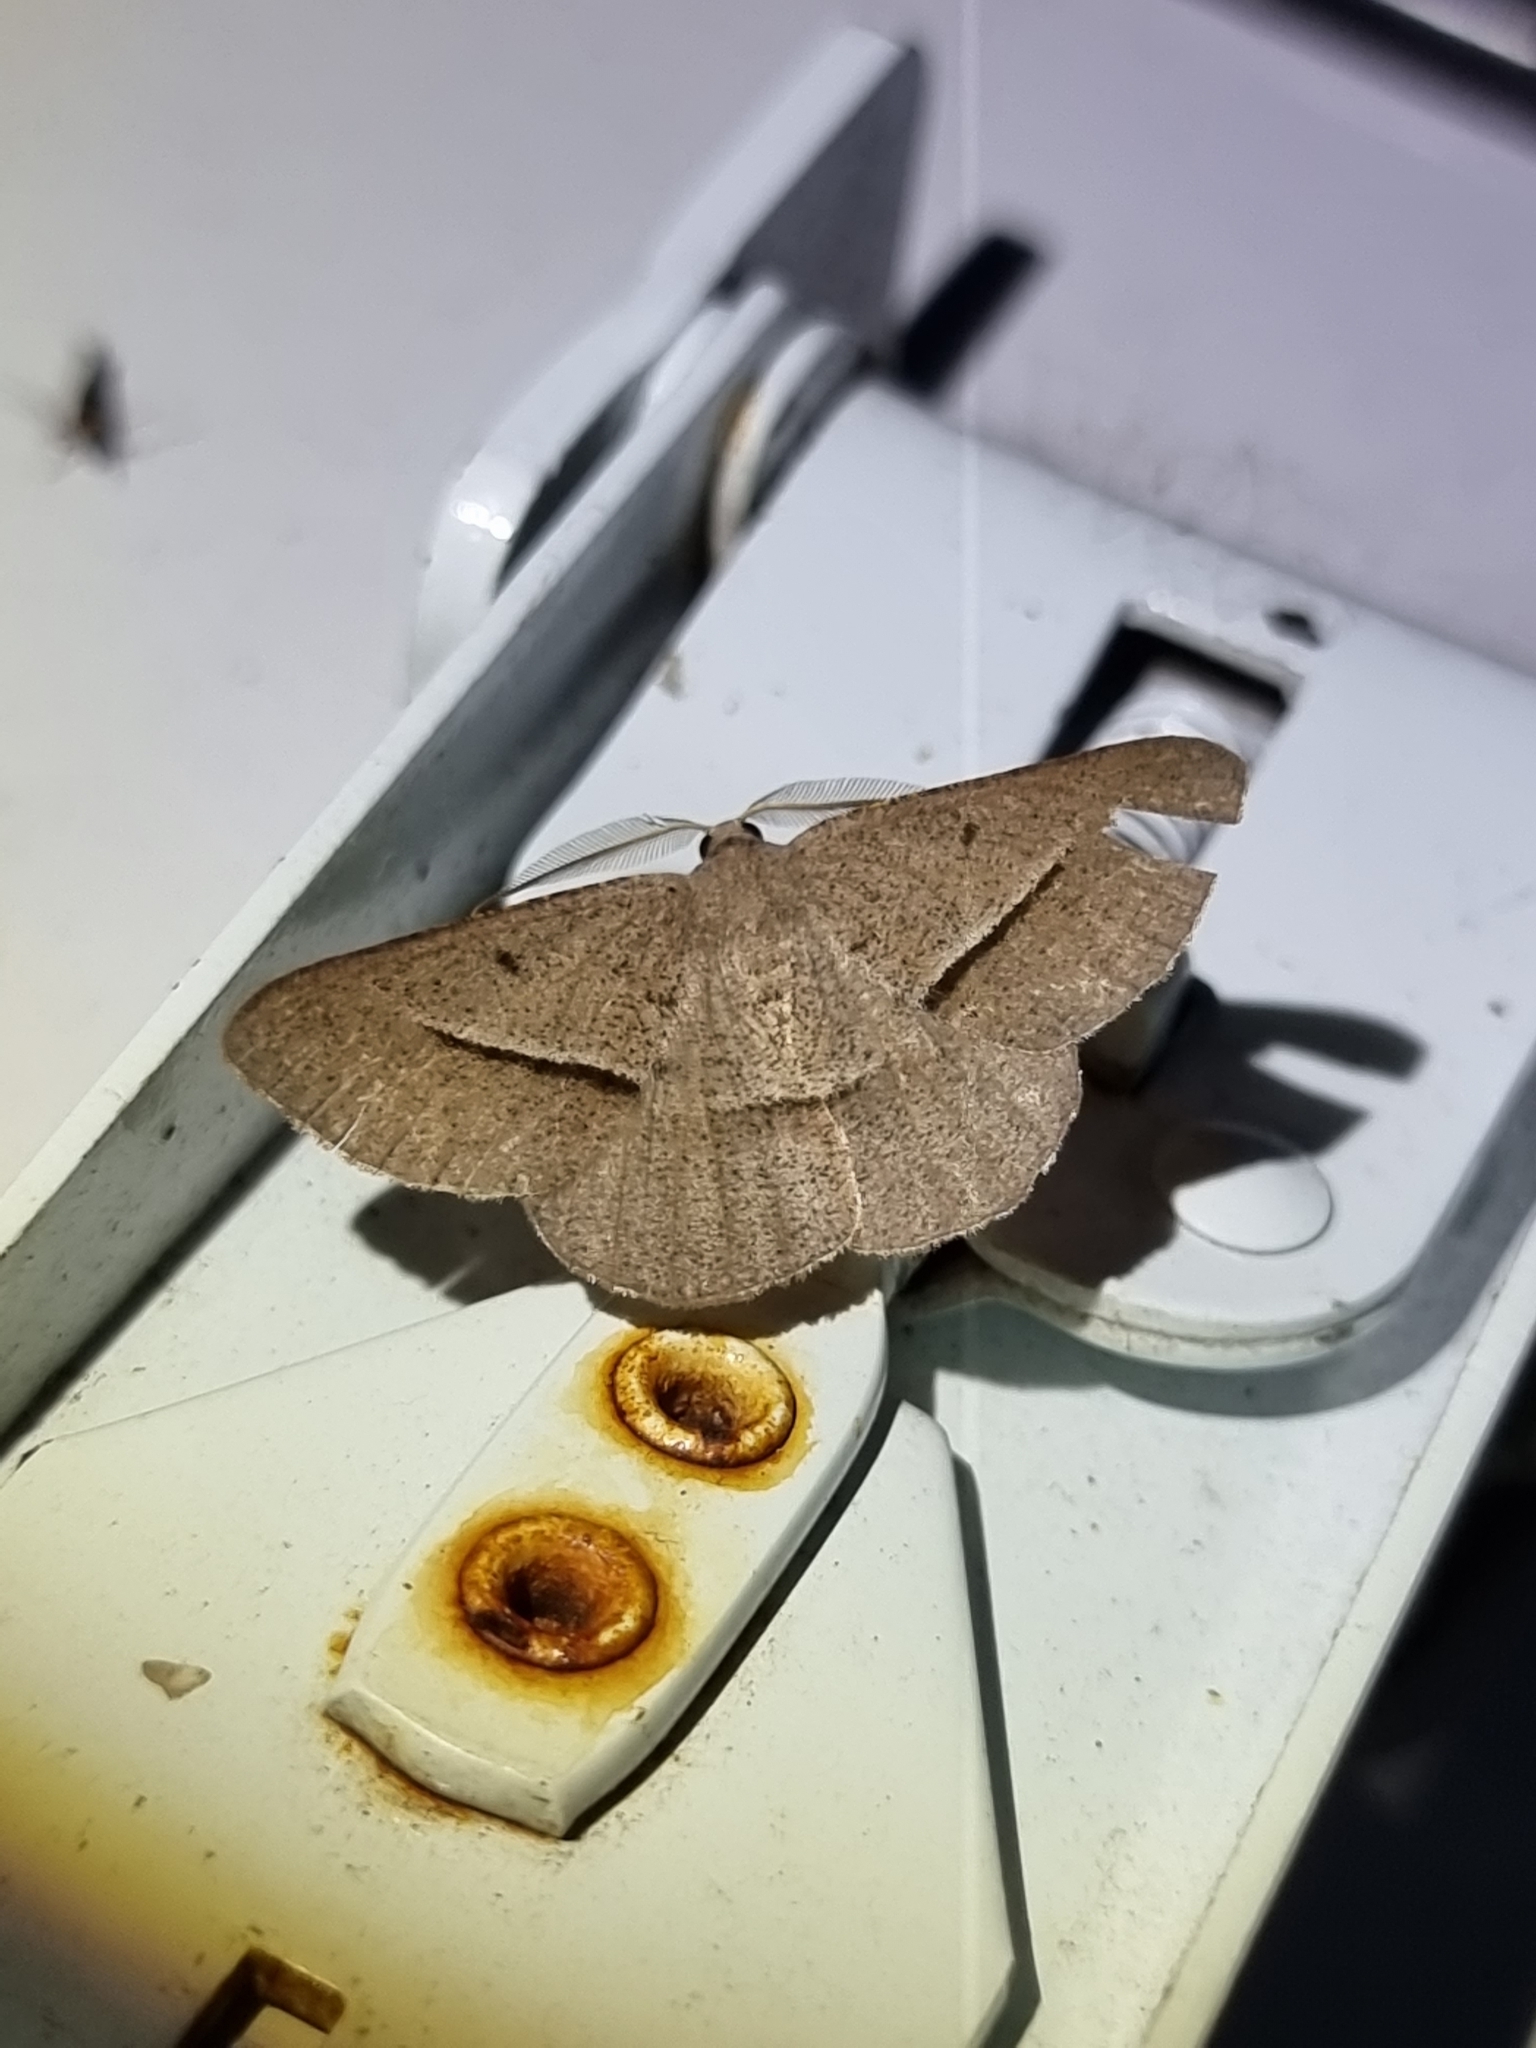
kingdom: Animalia
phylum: Arthropoda
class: Insecta
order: Lepidoptera
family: Geometridae
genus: Isturgia
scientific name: Isturgia
